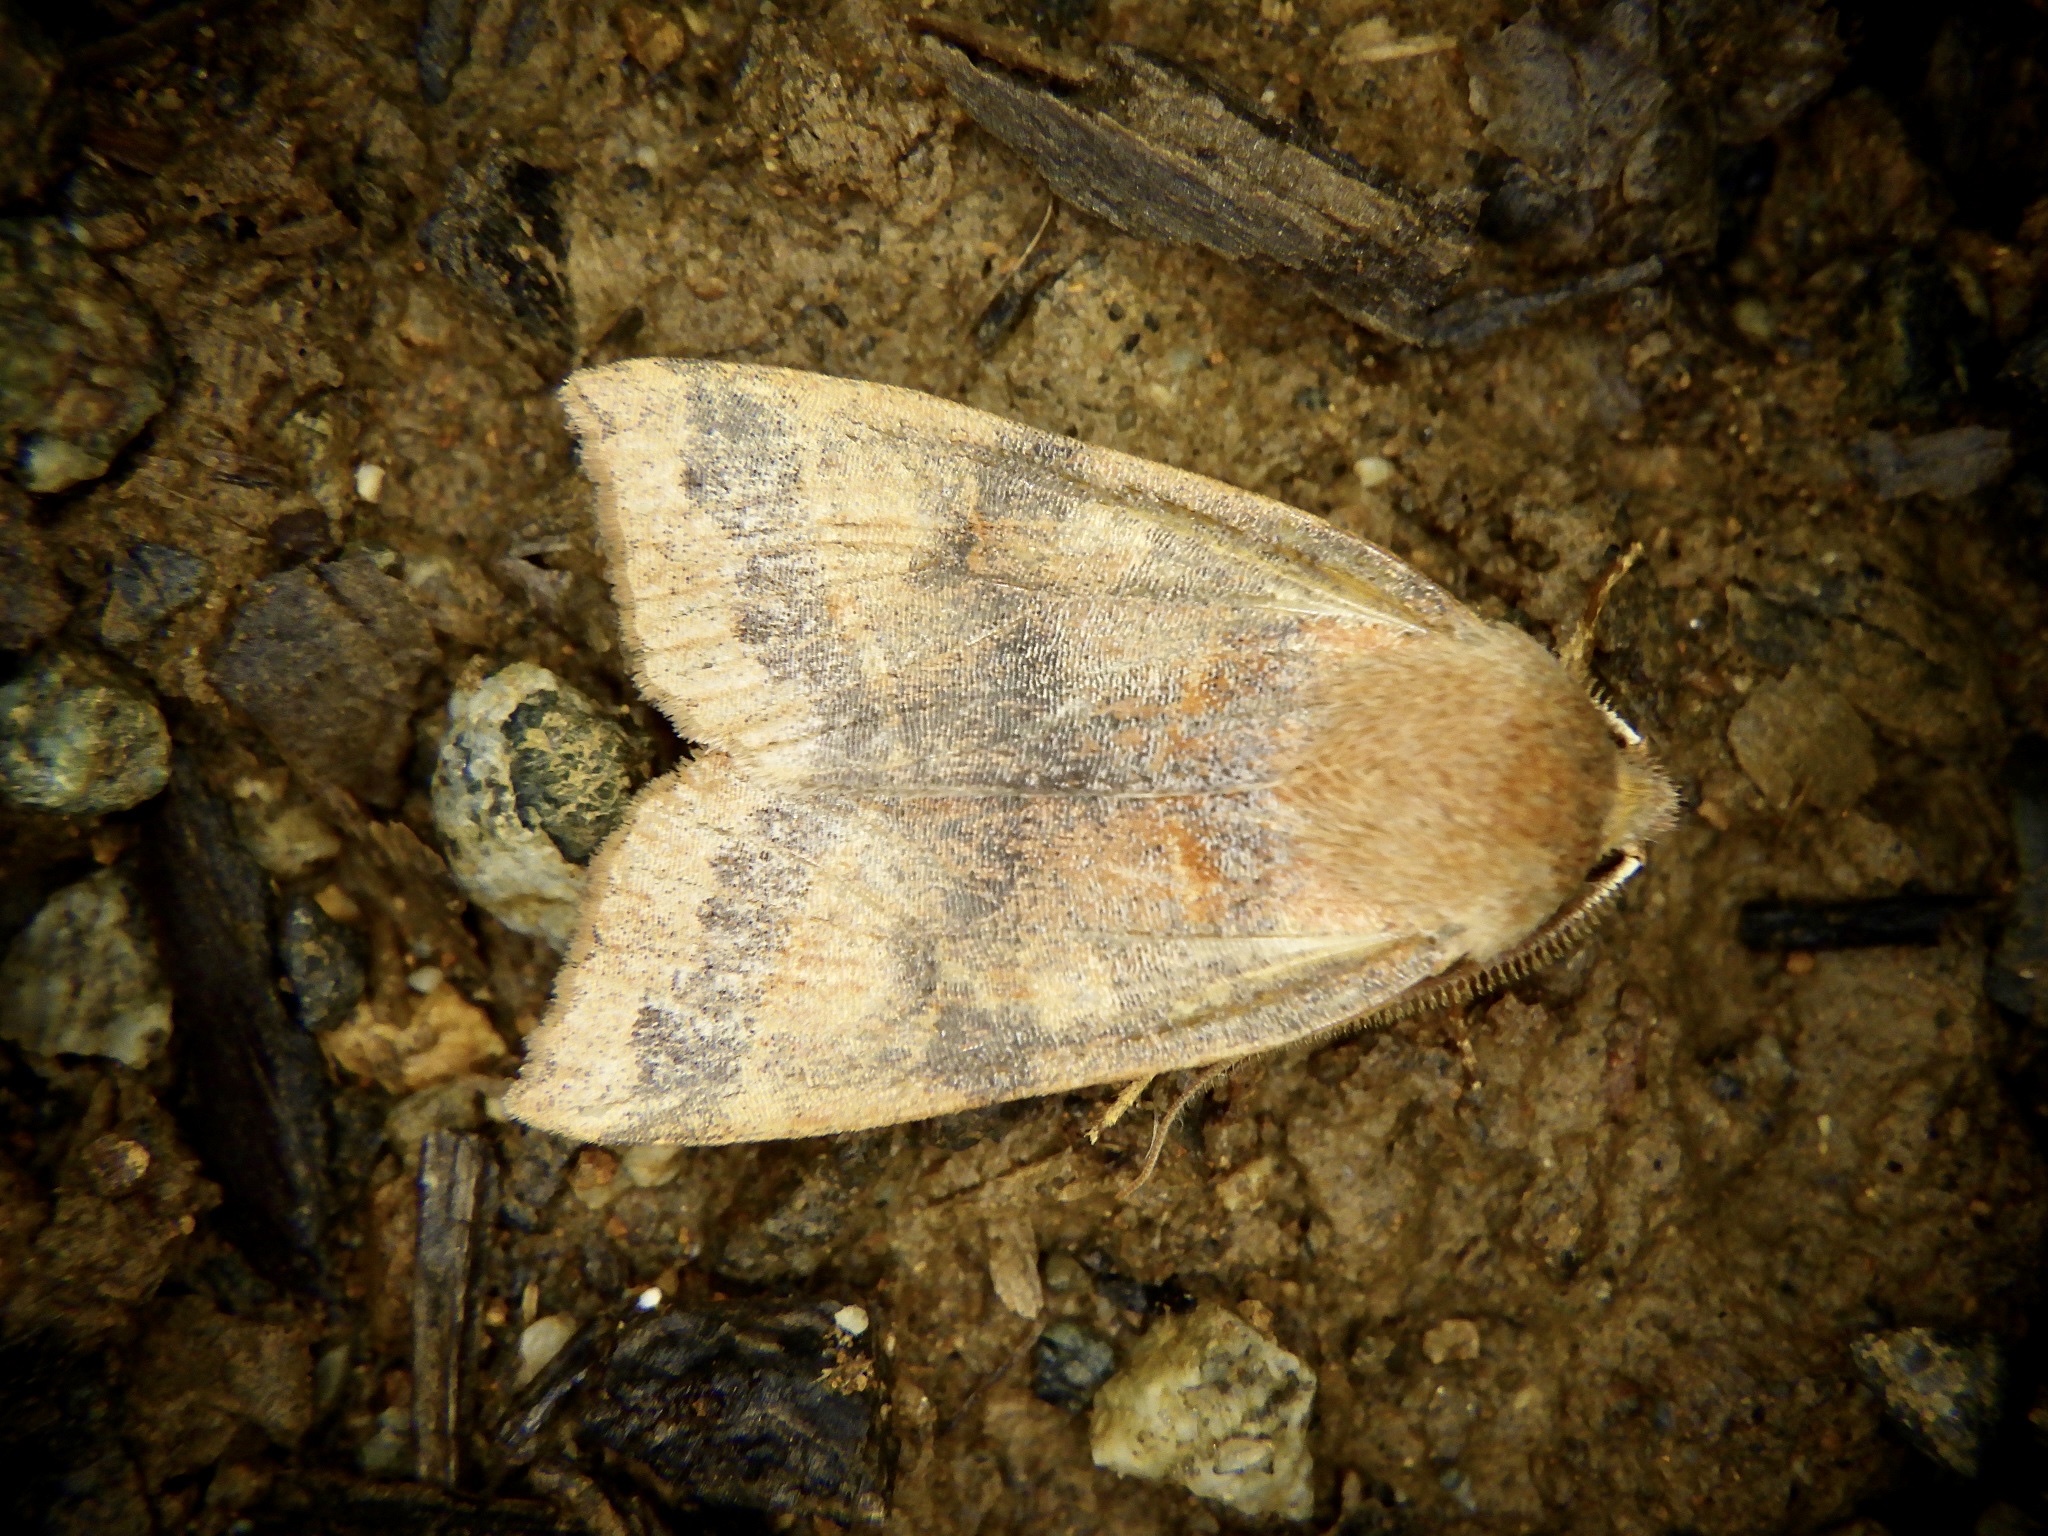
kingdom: Animalia
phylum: Arthropoda
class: Insecta
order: Lepidoptera
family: Noctuidae
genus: Telorta
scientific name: Telorta edentata
